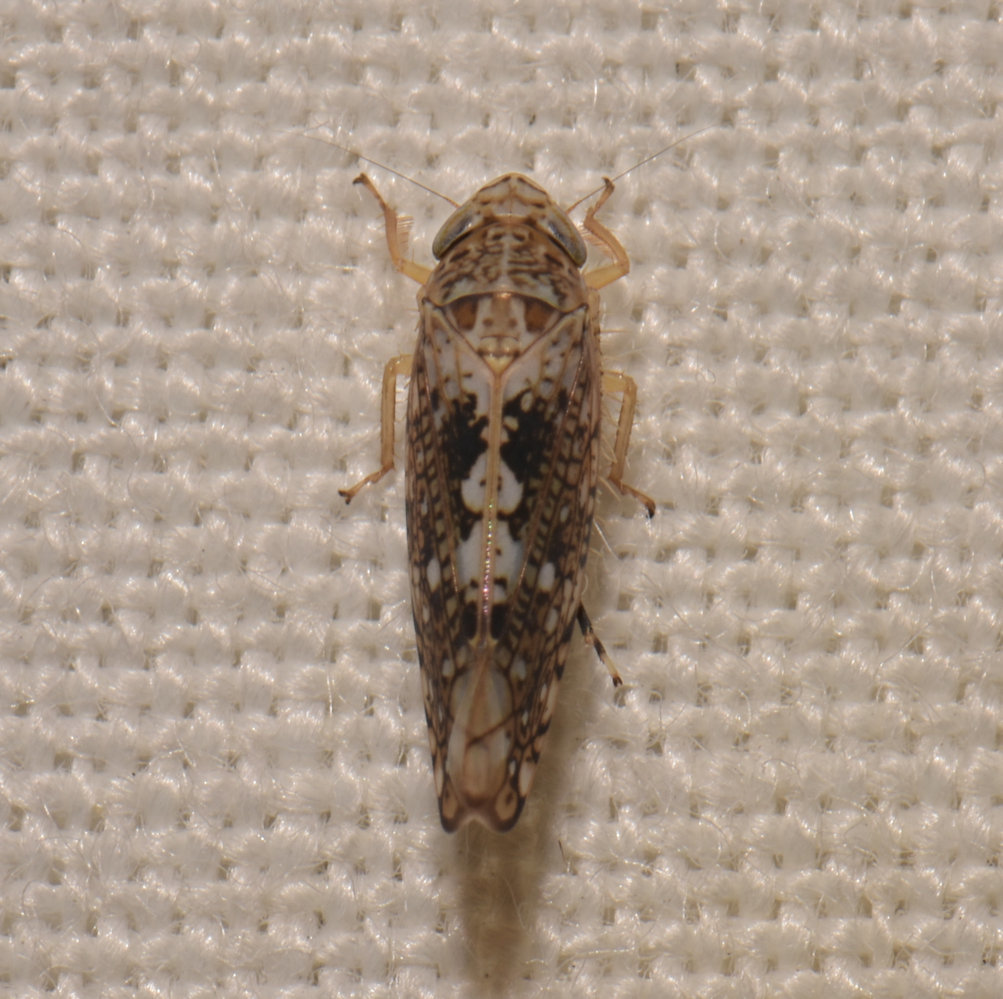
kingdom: Animalia
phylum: Arthropoda
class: Insecta
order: Hemiptera
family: Cicadellidae
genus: Prescottia
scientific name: Prescottia lobata
